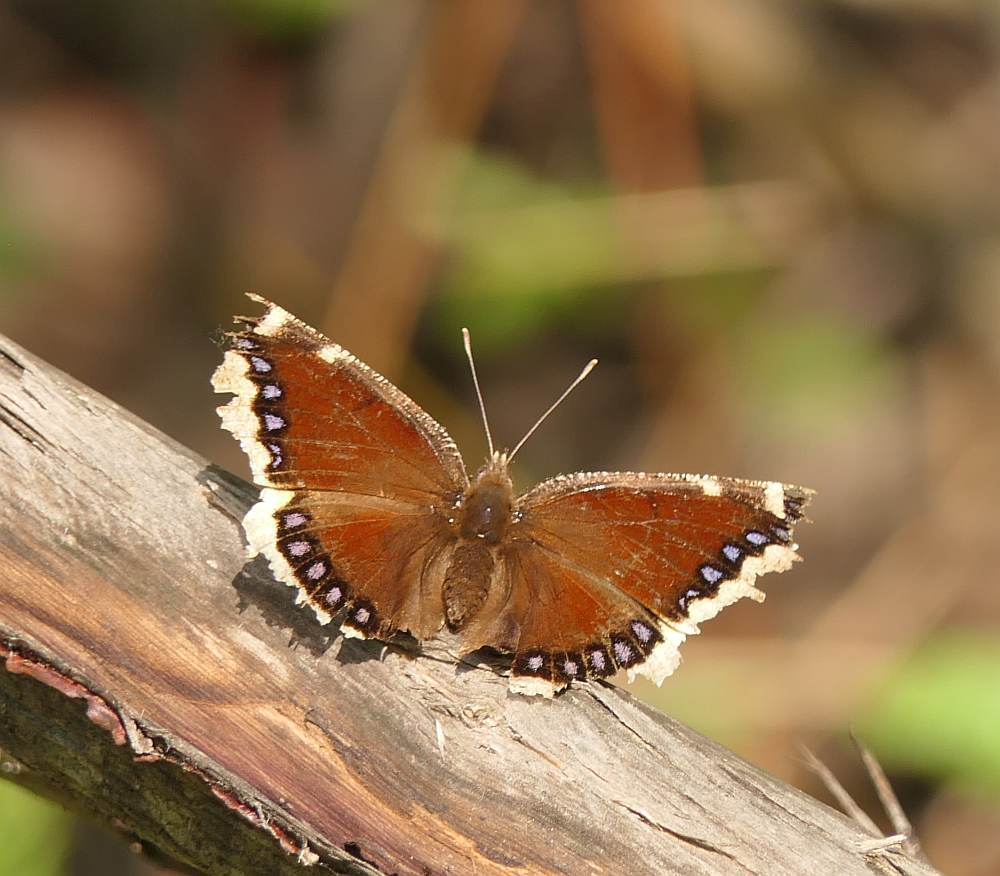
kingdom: Animalia
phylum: Arthropoda
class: Insecta
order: Lepidoptera
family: Nymphalidae
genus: Nymphalis
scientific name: Nymphalis antiopa
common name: Camberwell beauty
